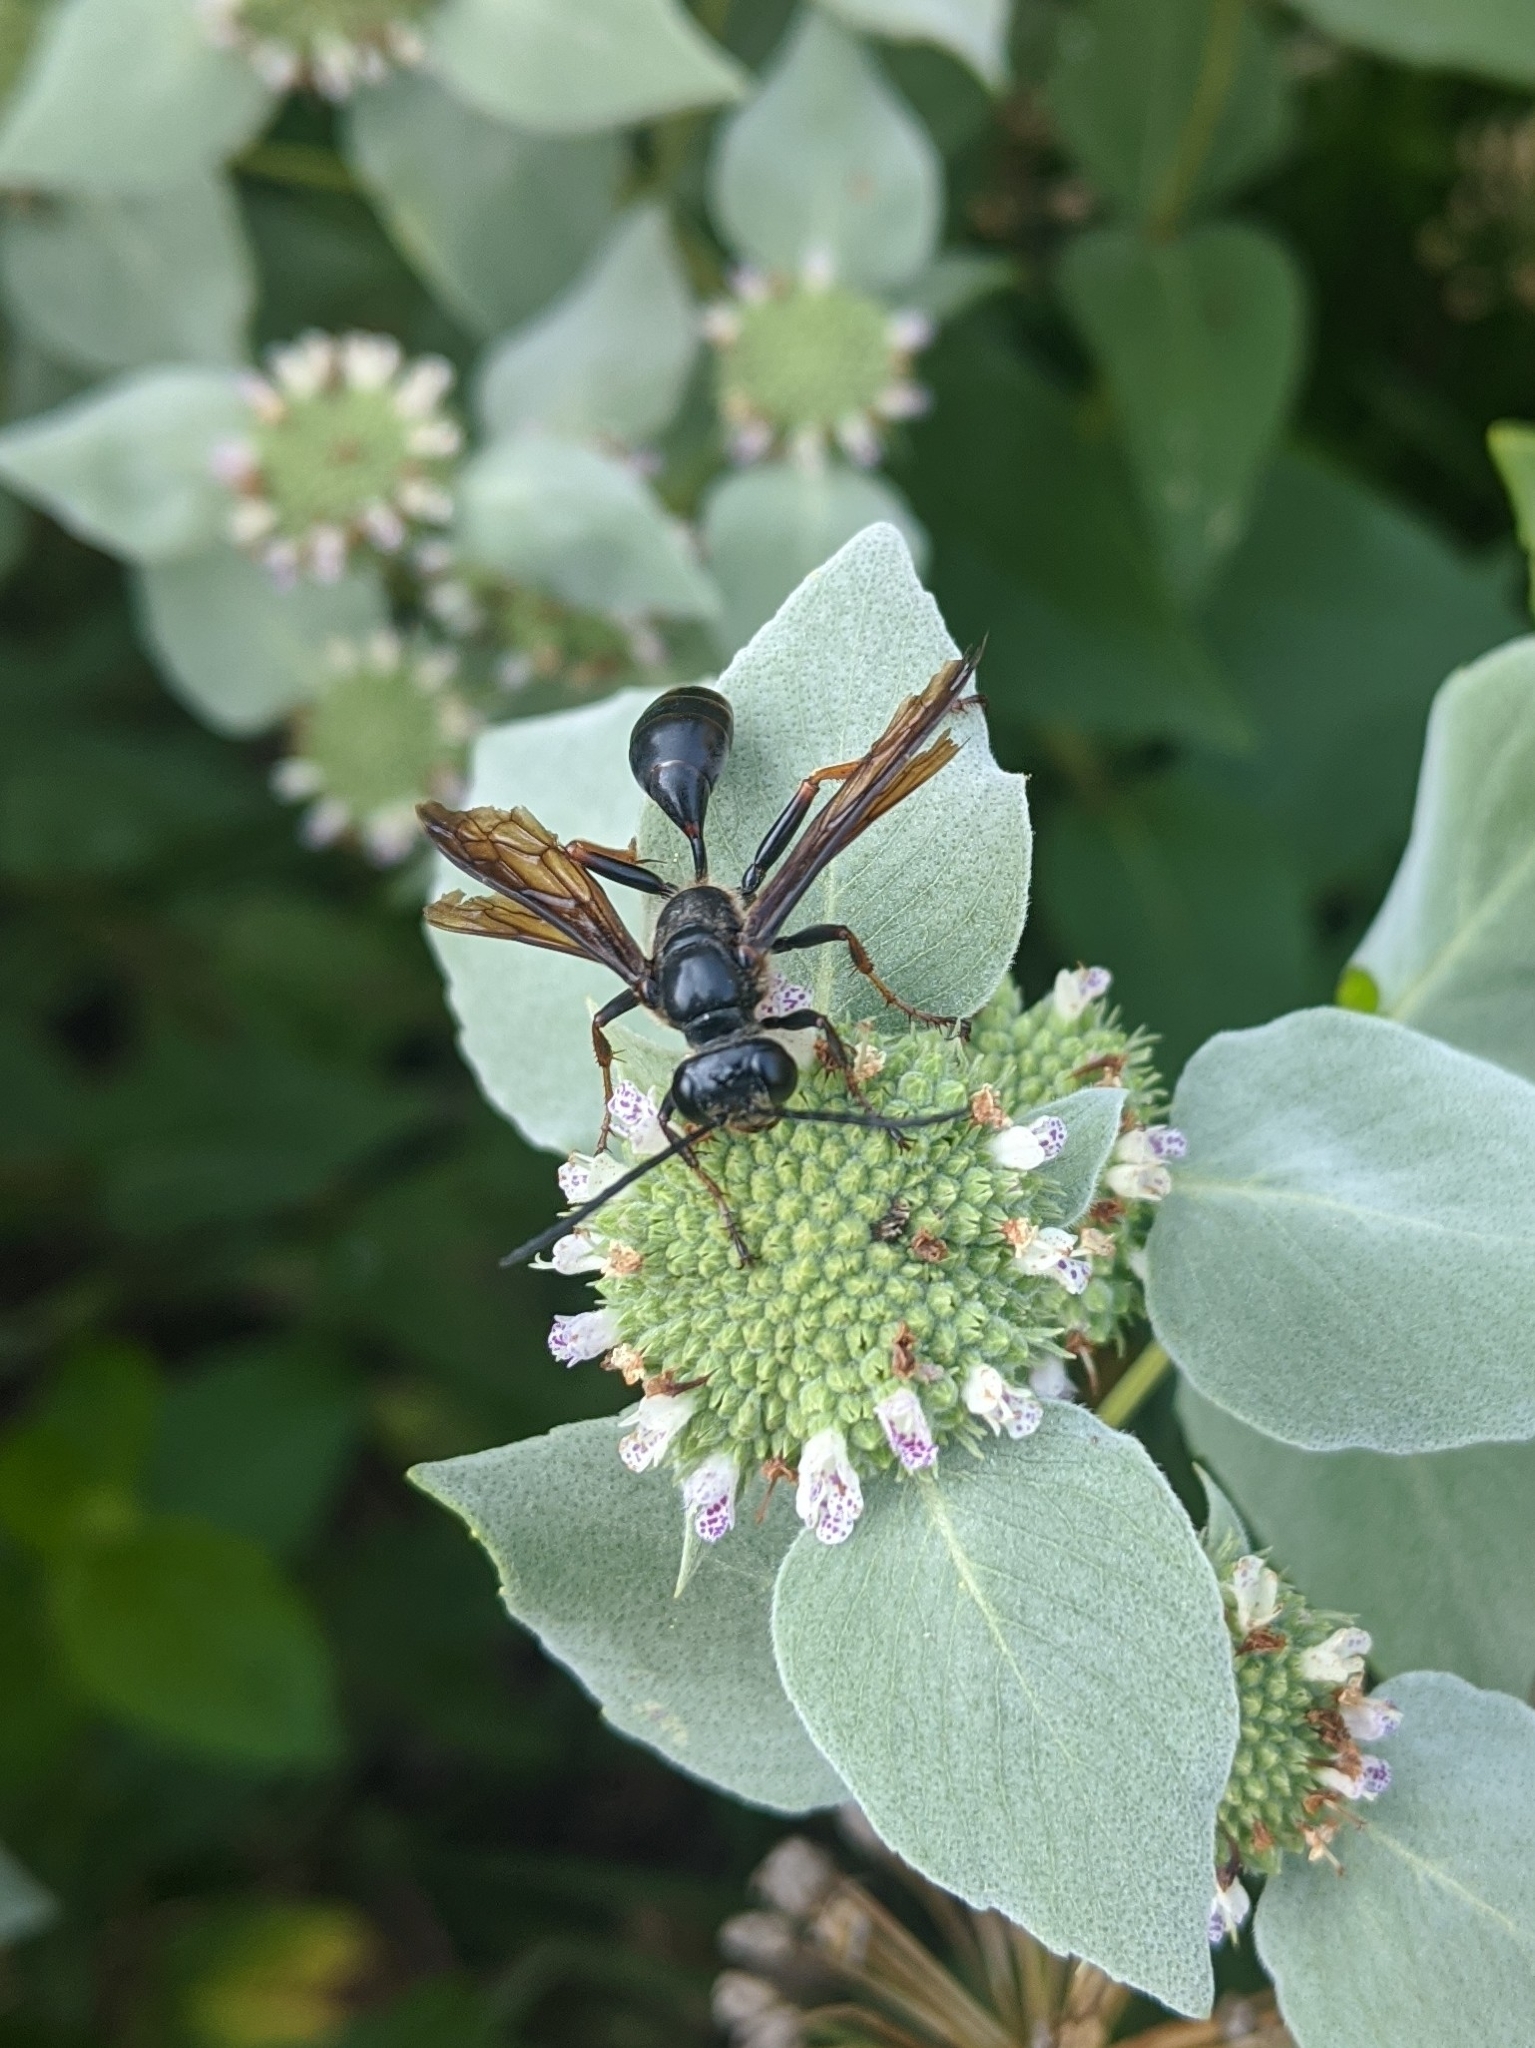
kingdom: Animalia
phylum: Arthropoda
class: Insecta
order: Hymenoptera
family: Sphecidae
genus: Isodontia
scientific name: Isodontia auripes
